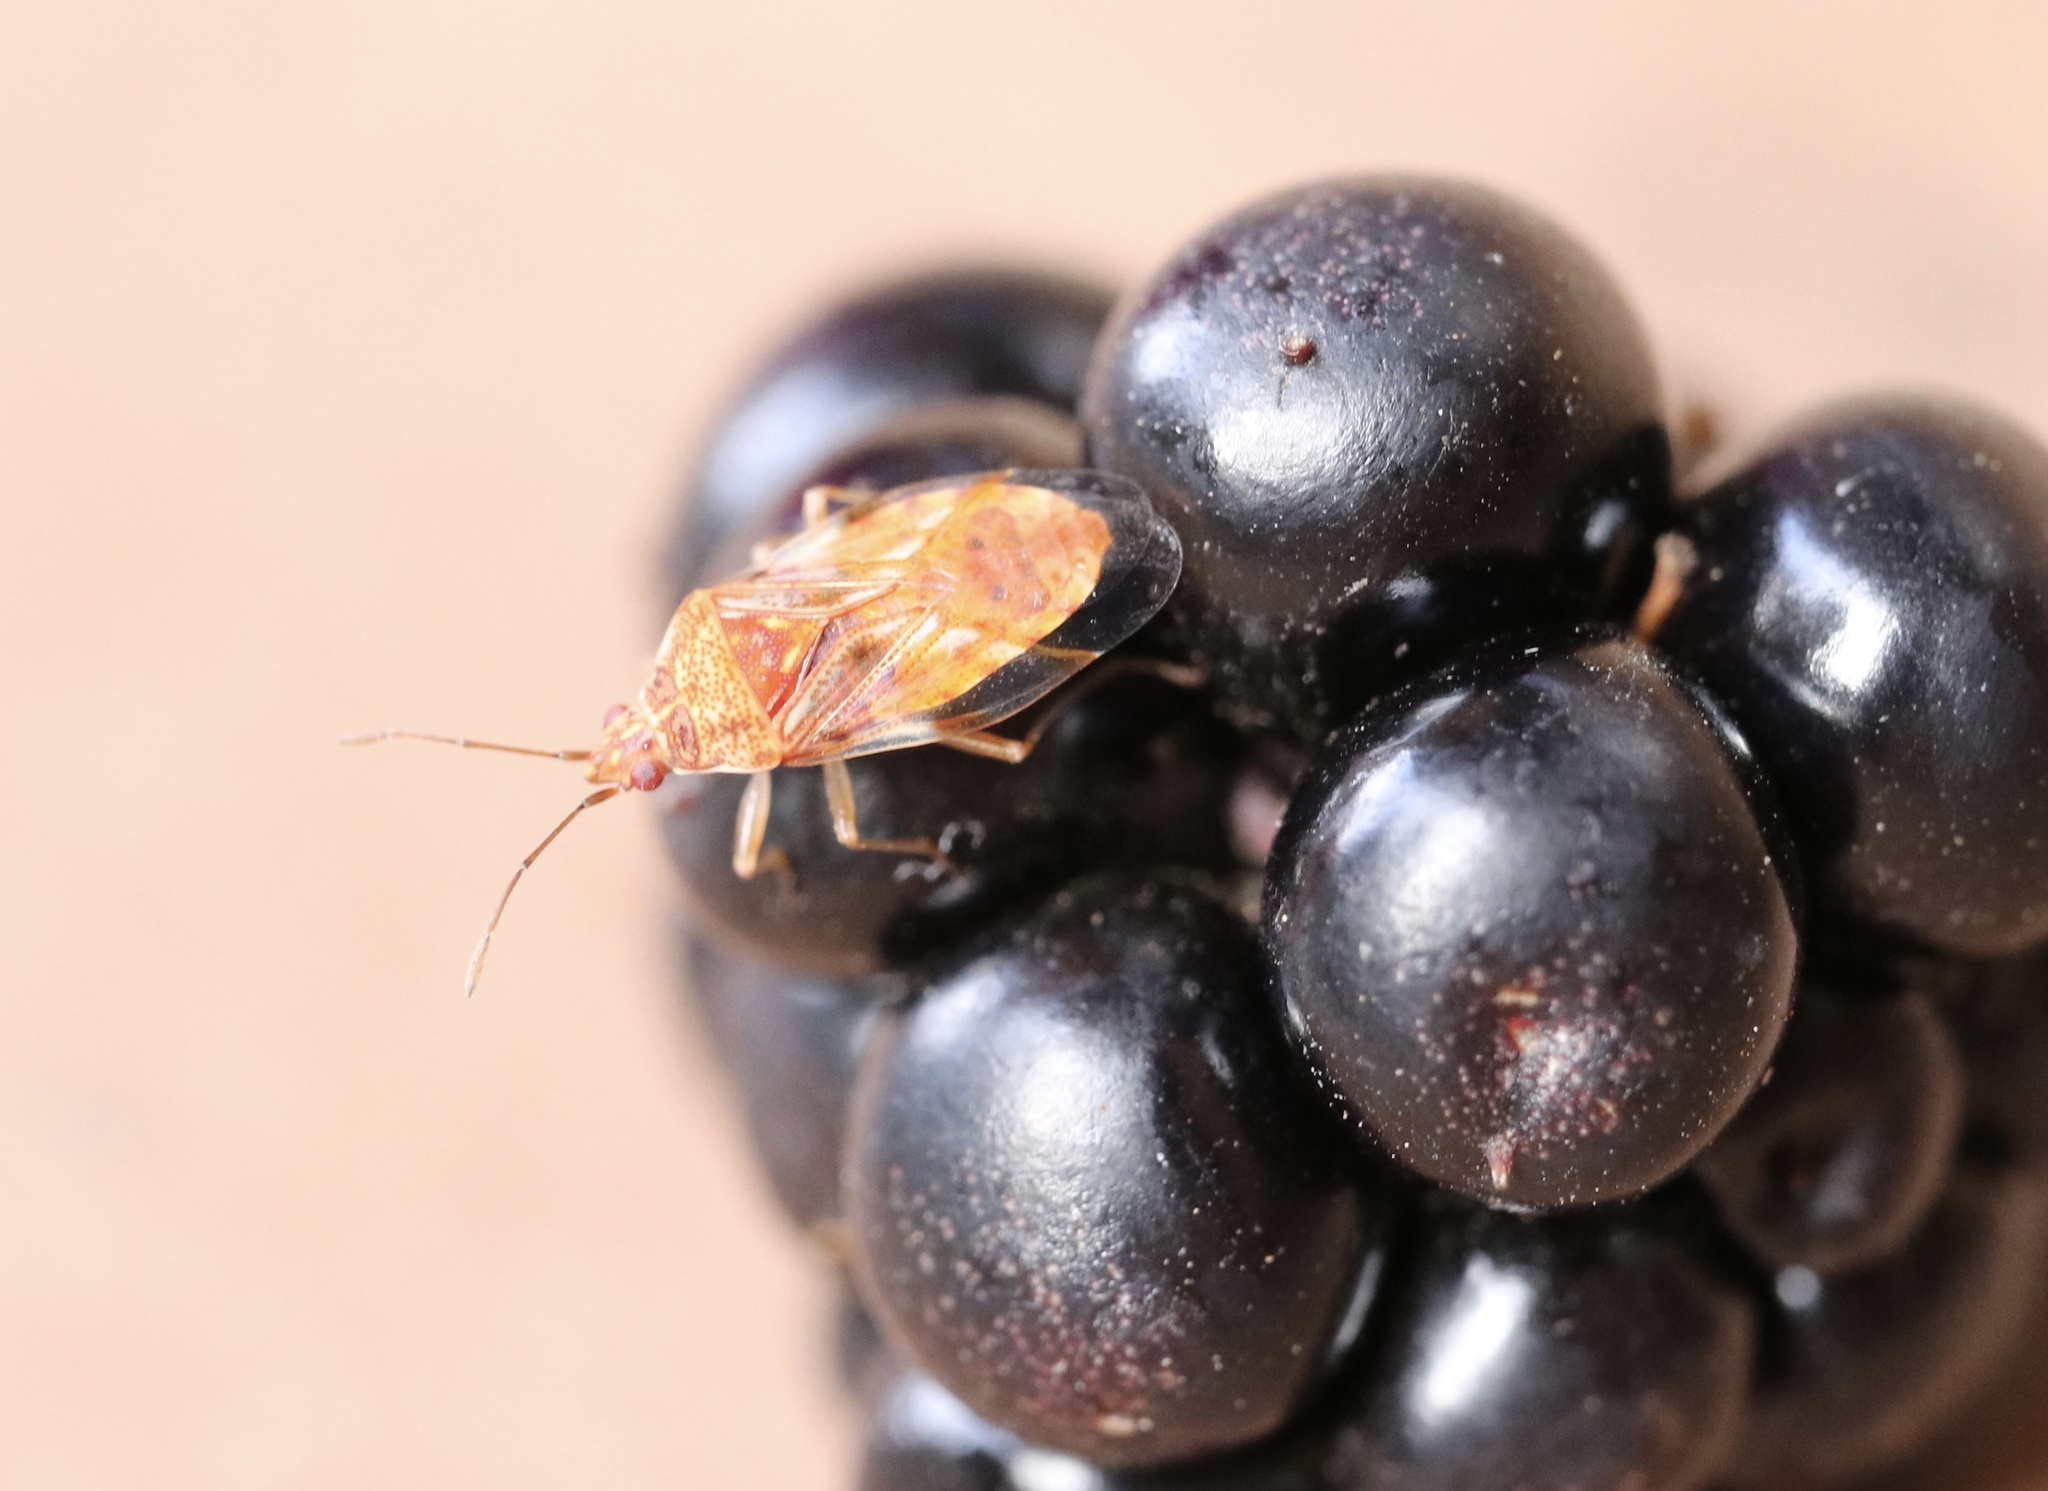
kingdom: Animalia
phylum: Arthropoda
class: Insecta
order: Hemiptera
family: Lygaeidae
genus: Syzygitis
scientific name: Syzygitis poecilus
